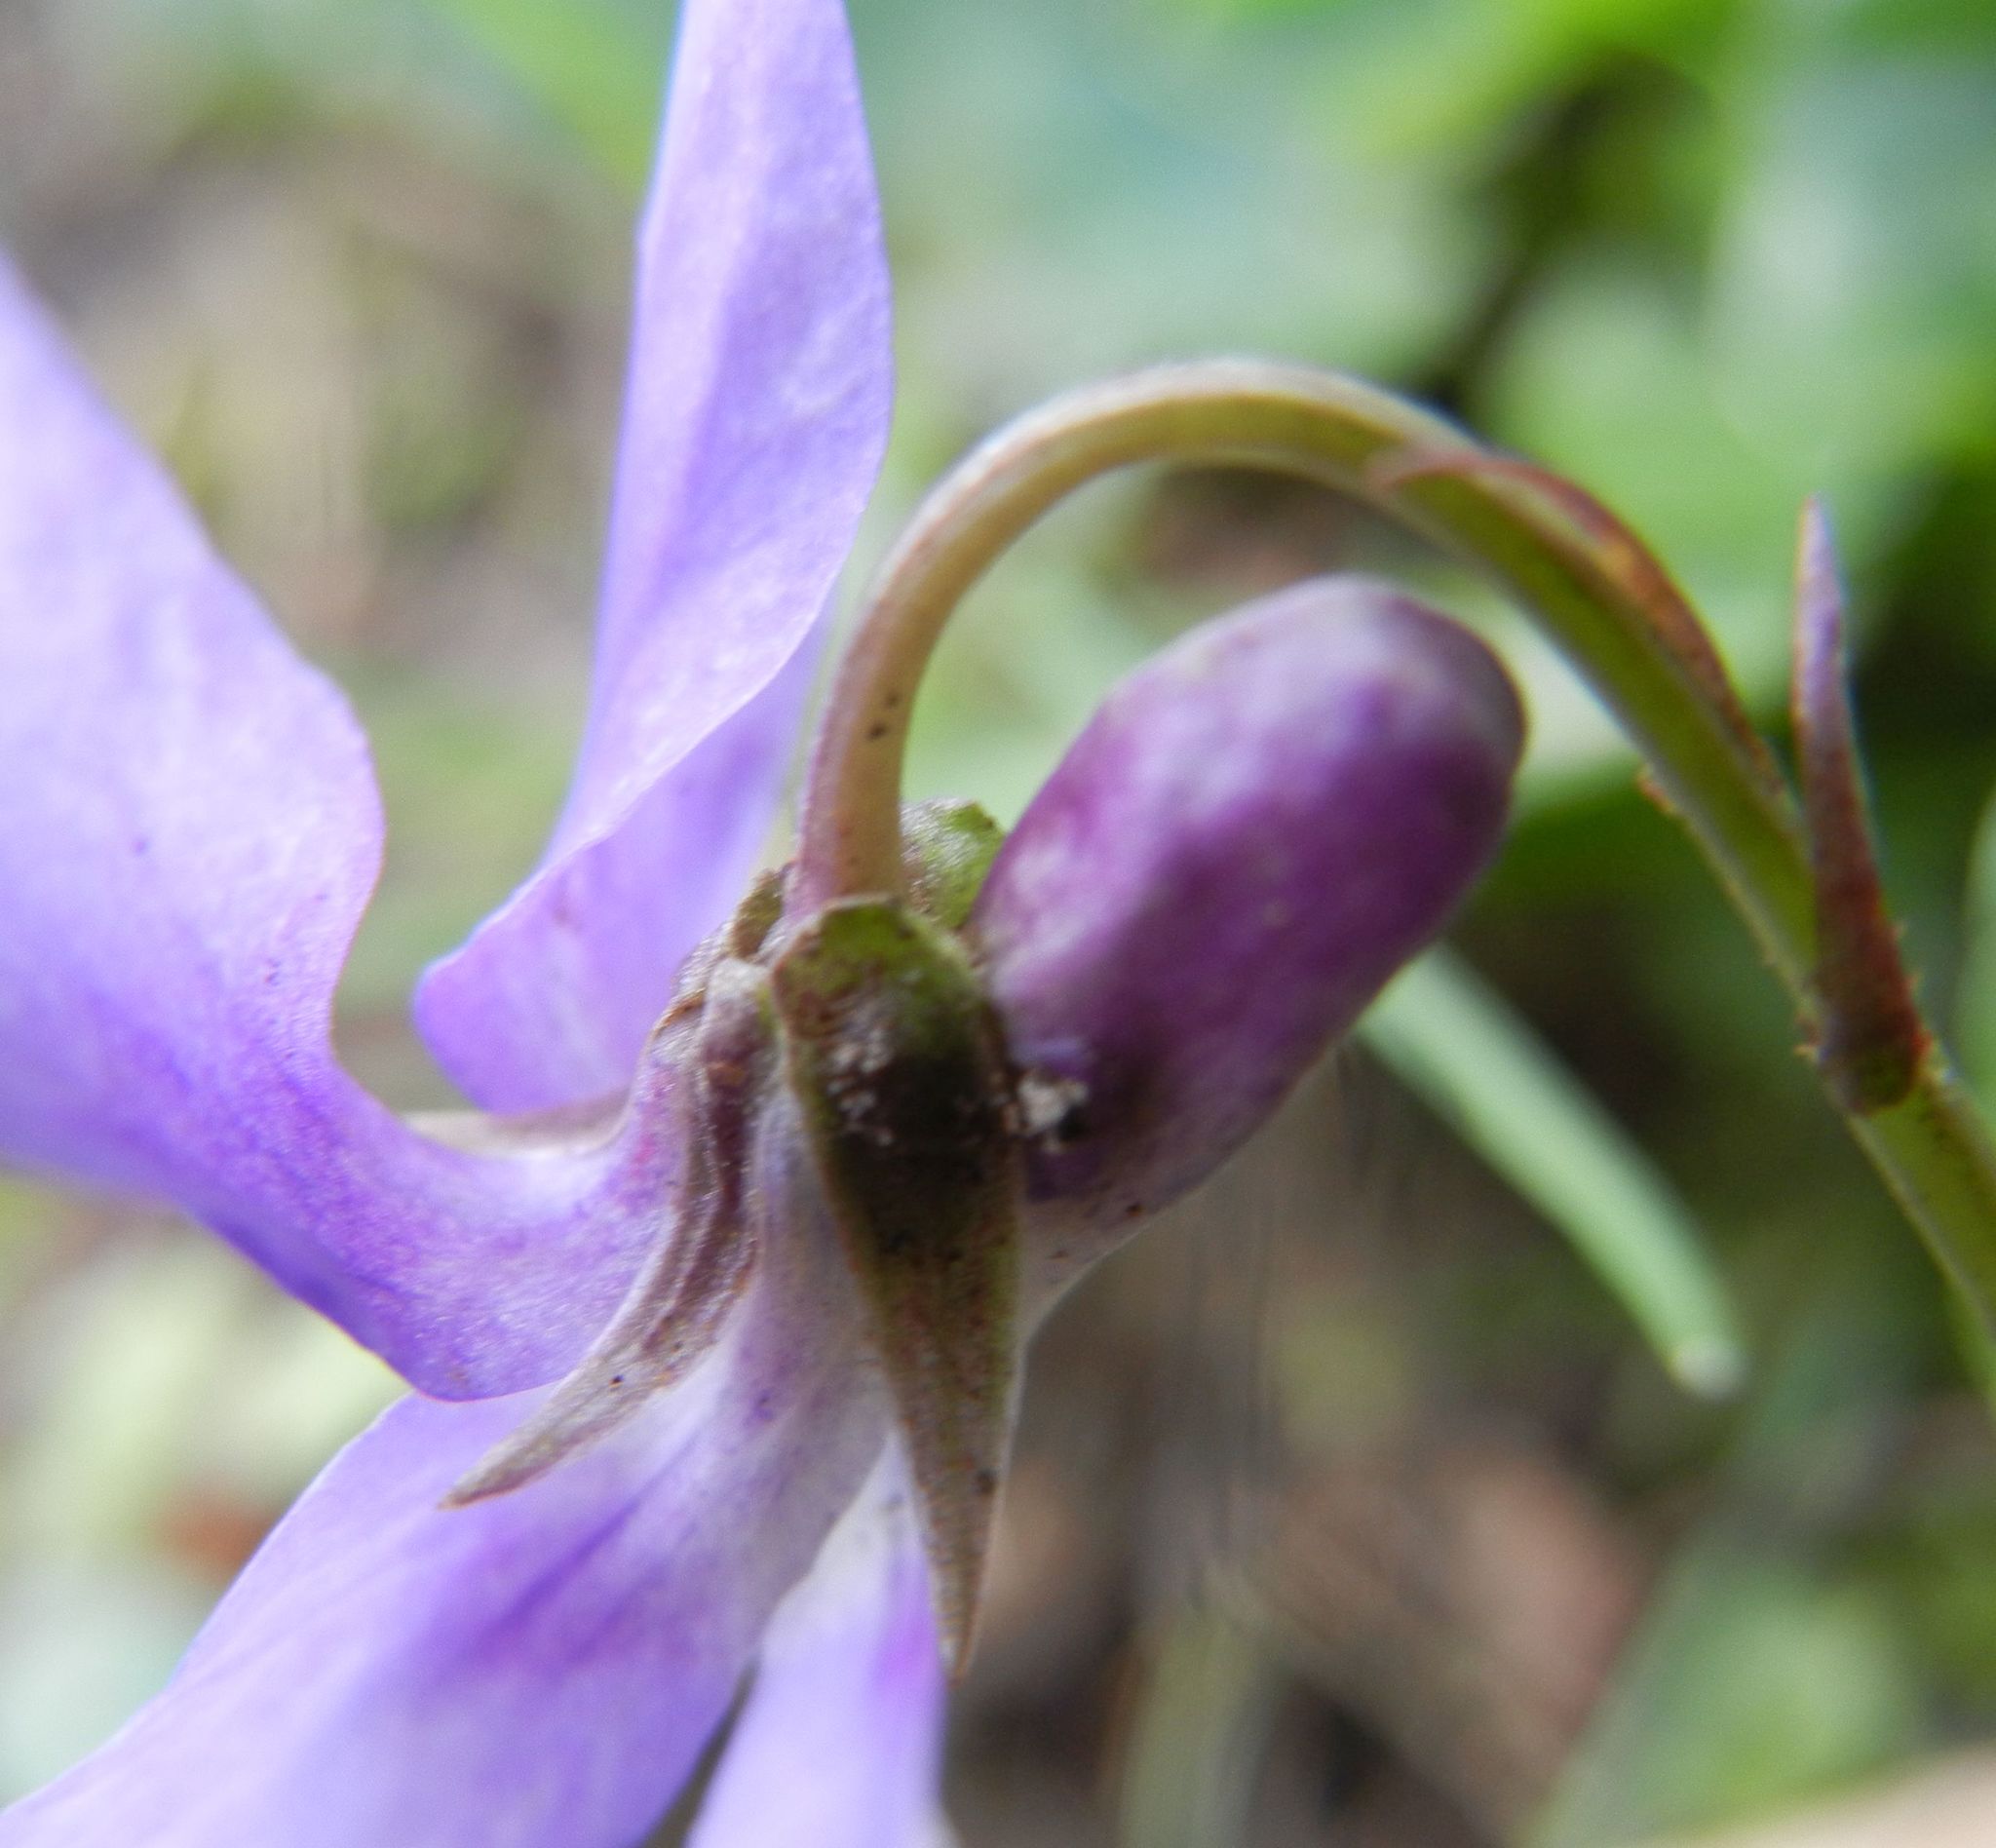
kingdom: Plantae
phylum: Tracheophyta
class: Magnoliopsida
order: Malpighiales
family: Violaceae
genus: Viola
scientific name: Viola reichenbachiana
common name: Early dog-violet
